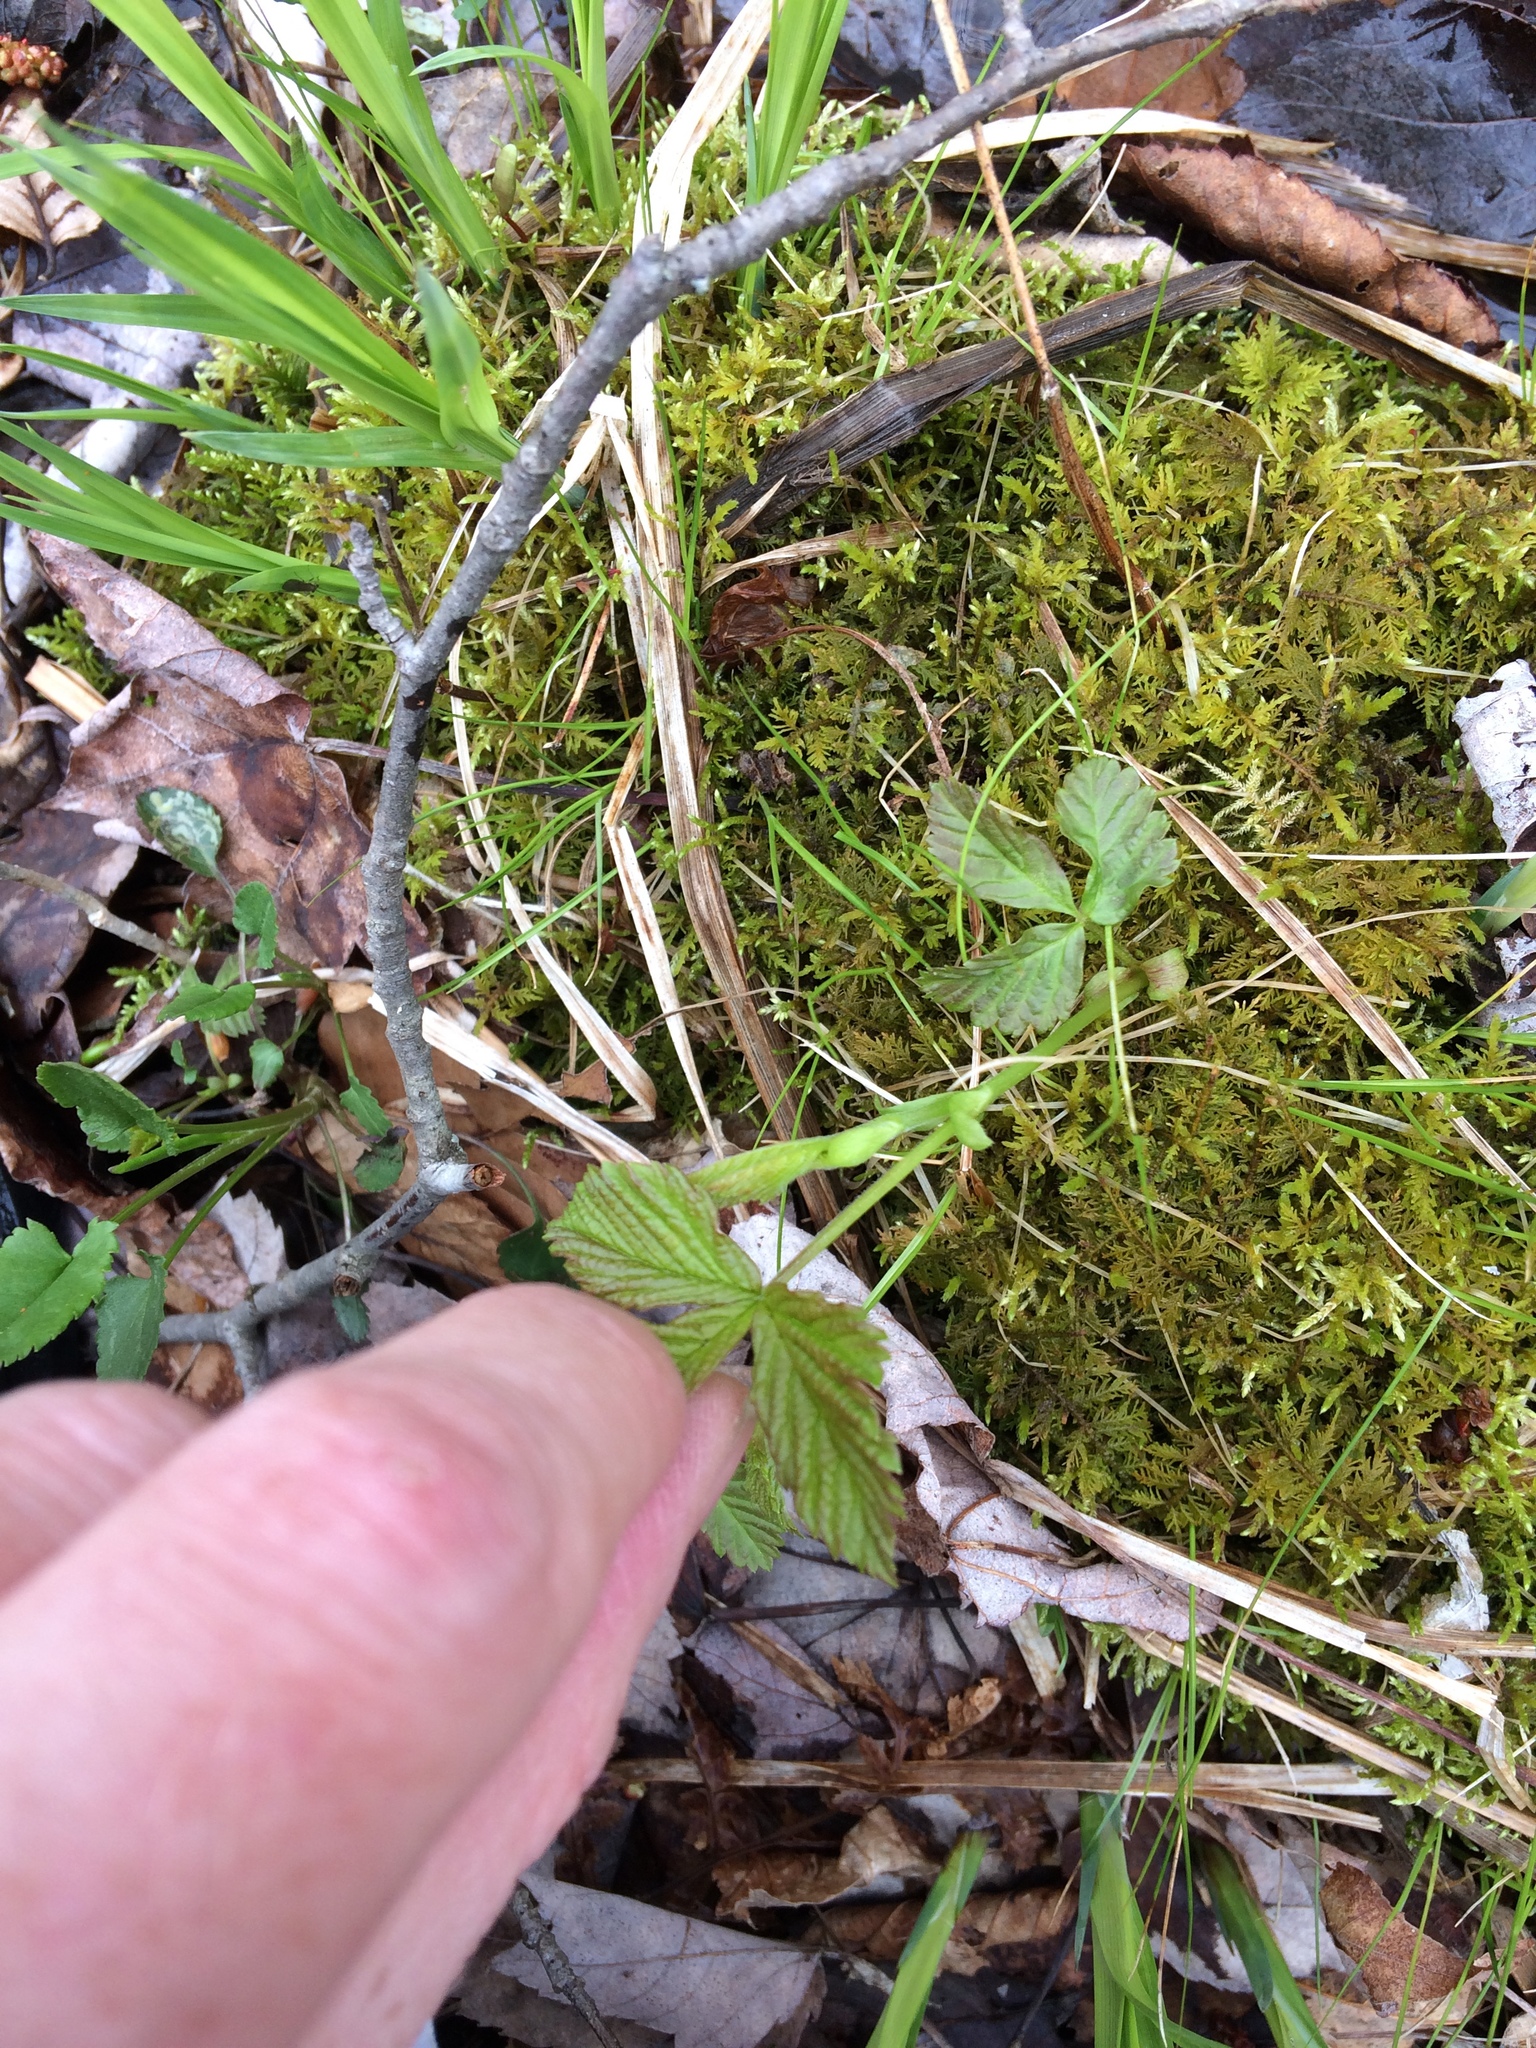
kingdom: Plantae
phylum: Tracheophyta
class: Magnoliopsida
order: Rosales
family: Rosaceae
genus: Rubus
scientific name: Rubus pubescens
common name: Dwarf raspberry
